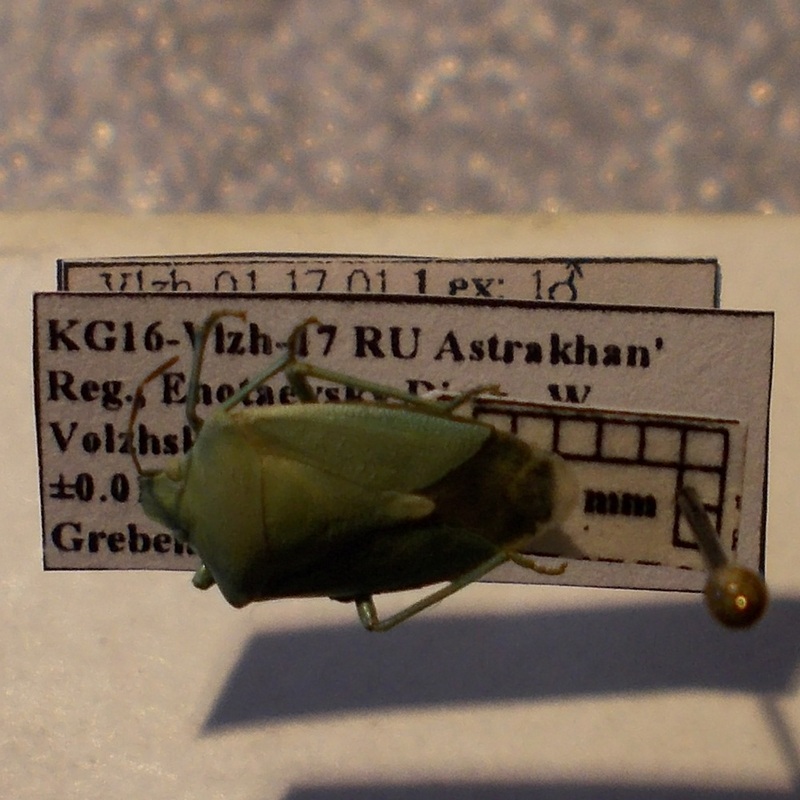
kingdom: Animalia
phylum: Arthropoda
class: Insecta
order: Hemiptera
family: Pentatomidae
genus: Brachynema
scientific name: Brachynema germarii
